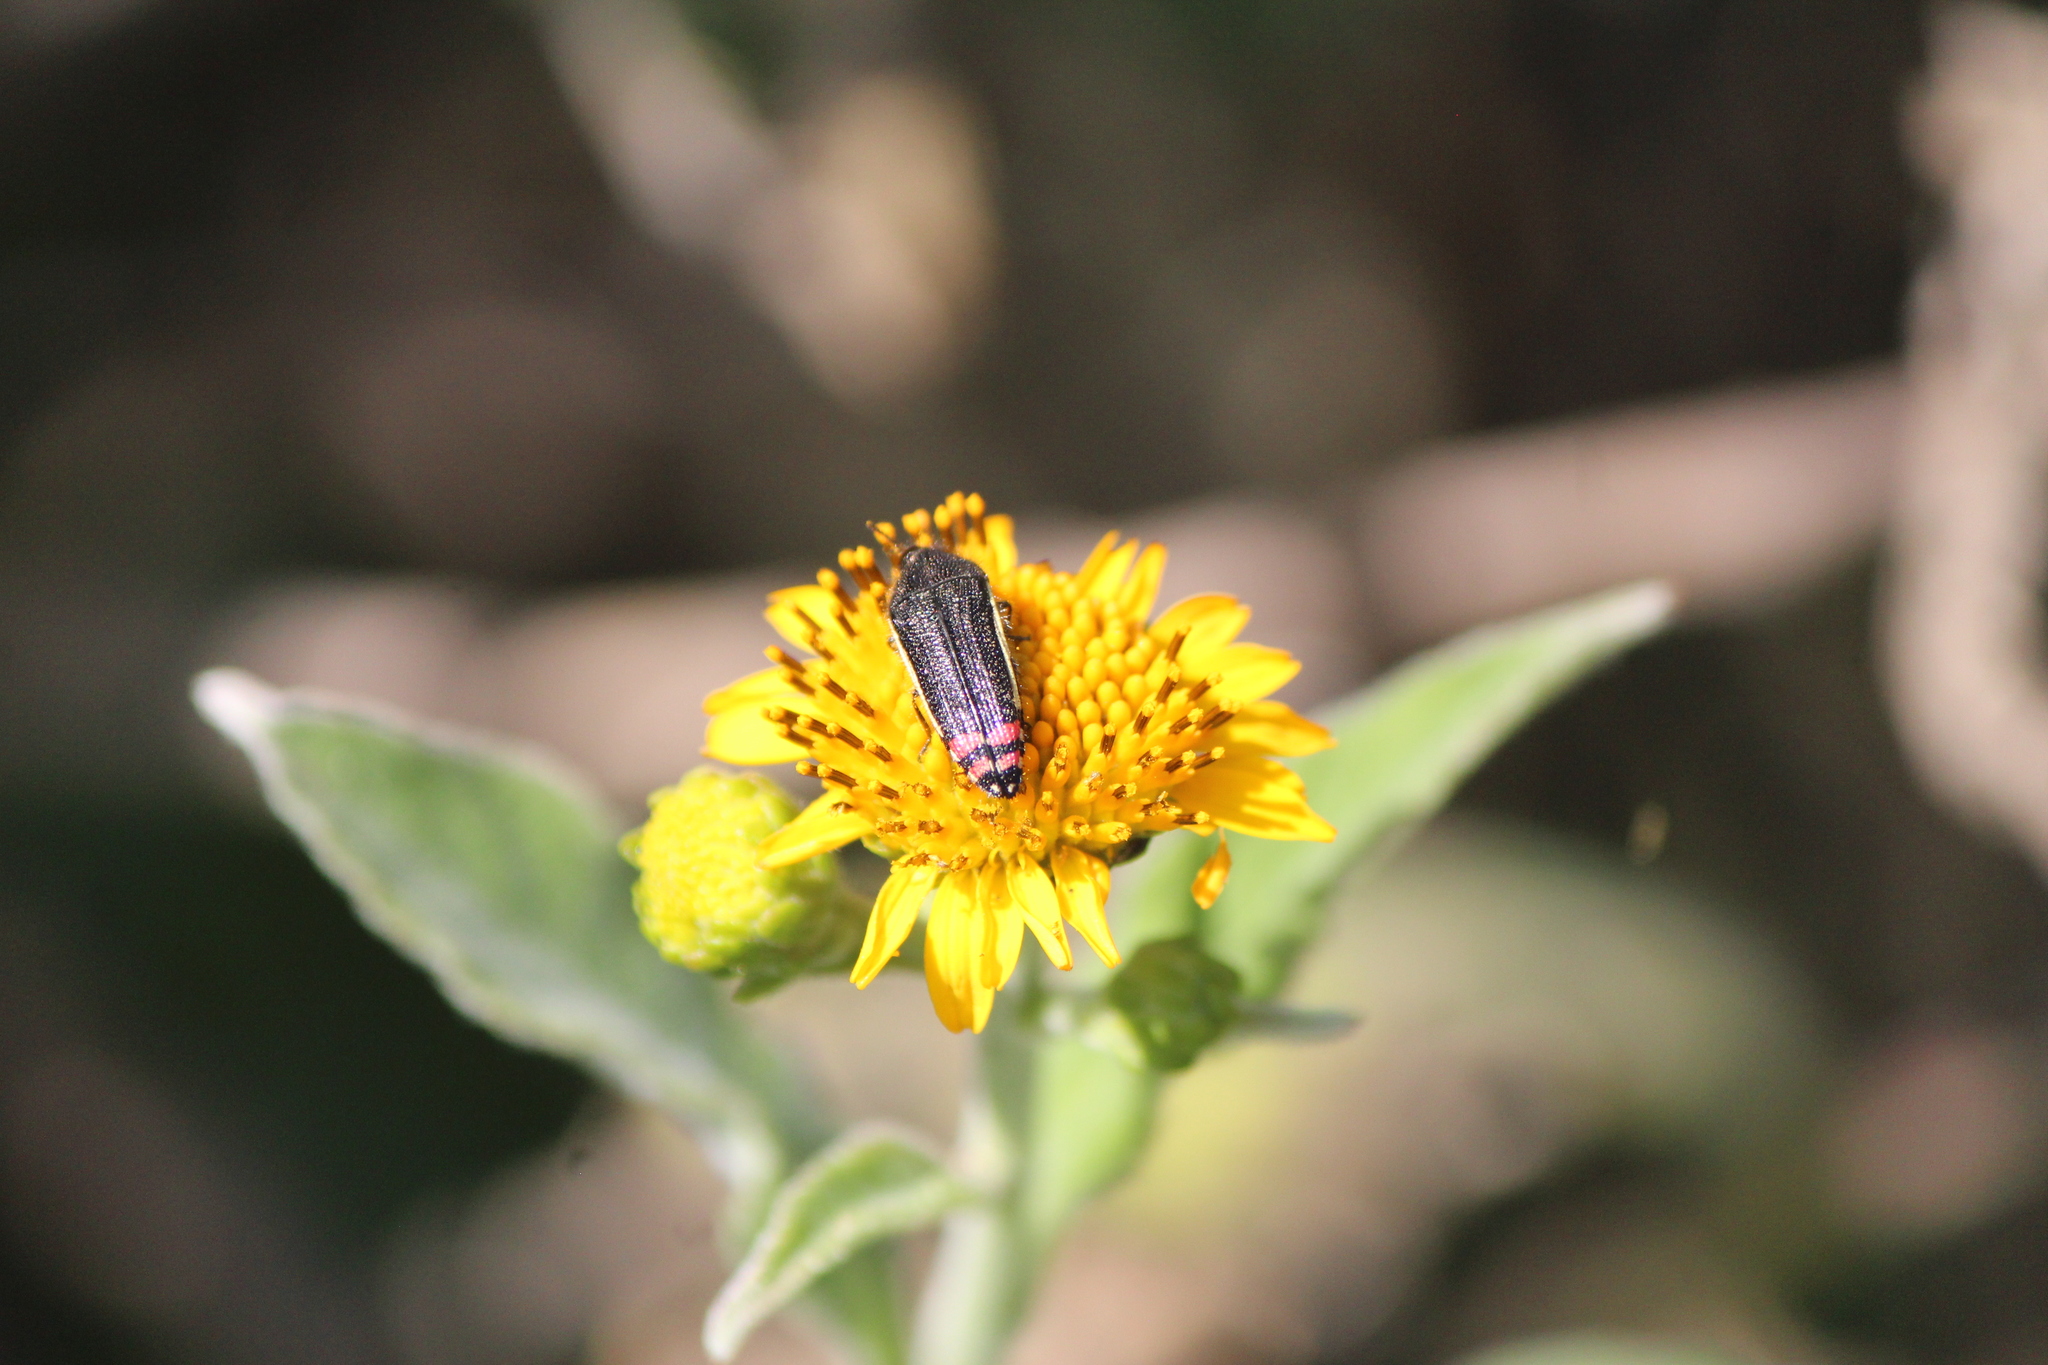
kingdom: Animalia
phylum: Arthropoda
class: Insecta
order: Coleoptera
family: Buprestidae
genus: Acmaeodera
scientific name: Acmaeodera flavomarginata
